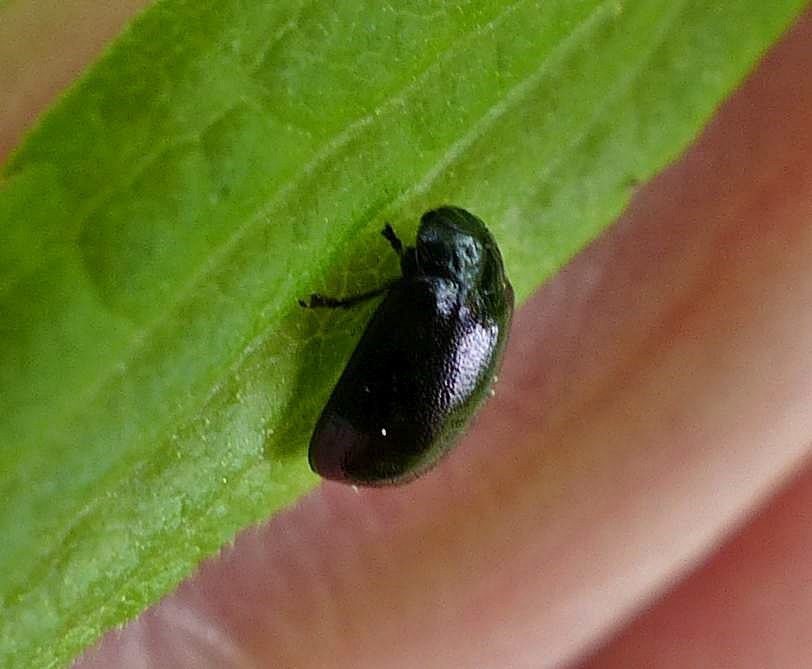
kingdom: Animalia
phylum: Arthropoda
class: Insecta
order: Coleoptera
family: Chrysomelidae
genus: Plagiodera
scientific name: Plagiodera versicolora
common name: Imported willow leaf beetle
